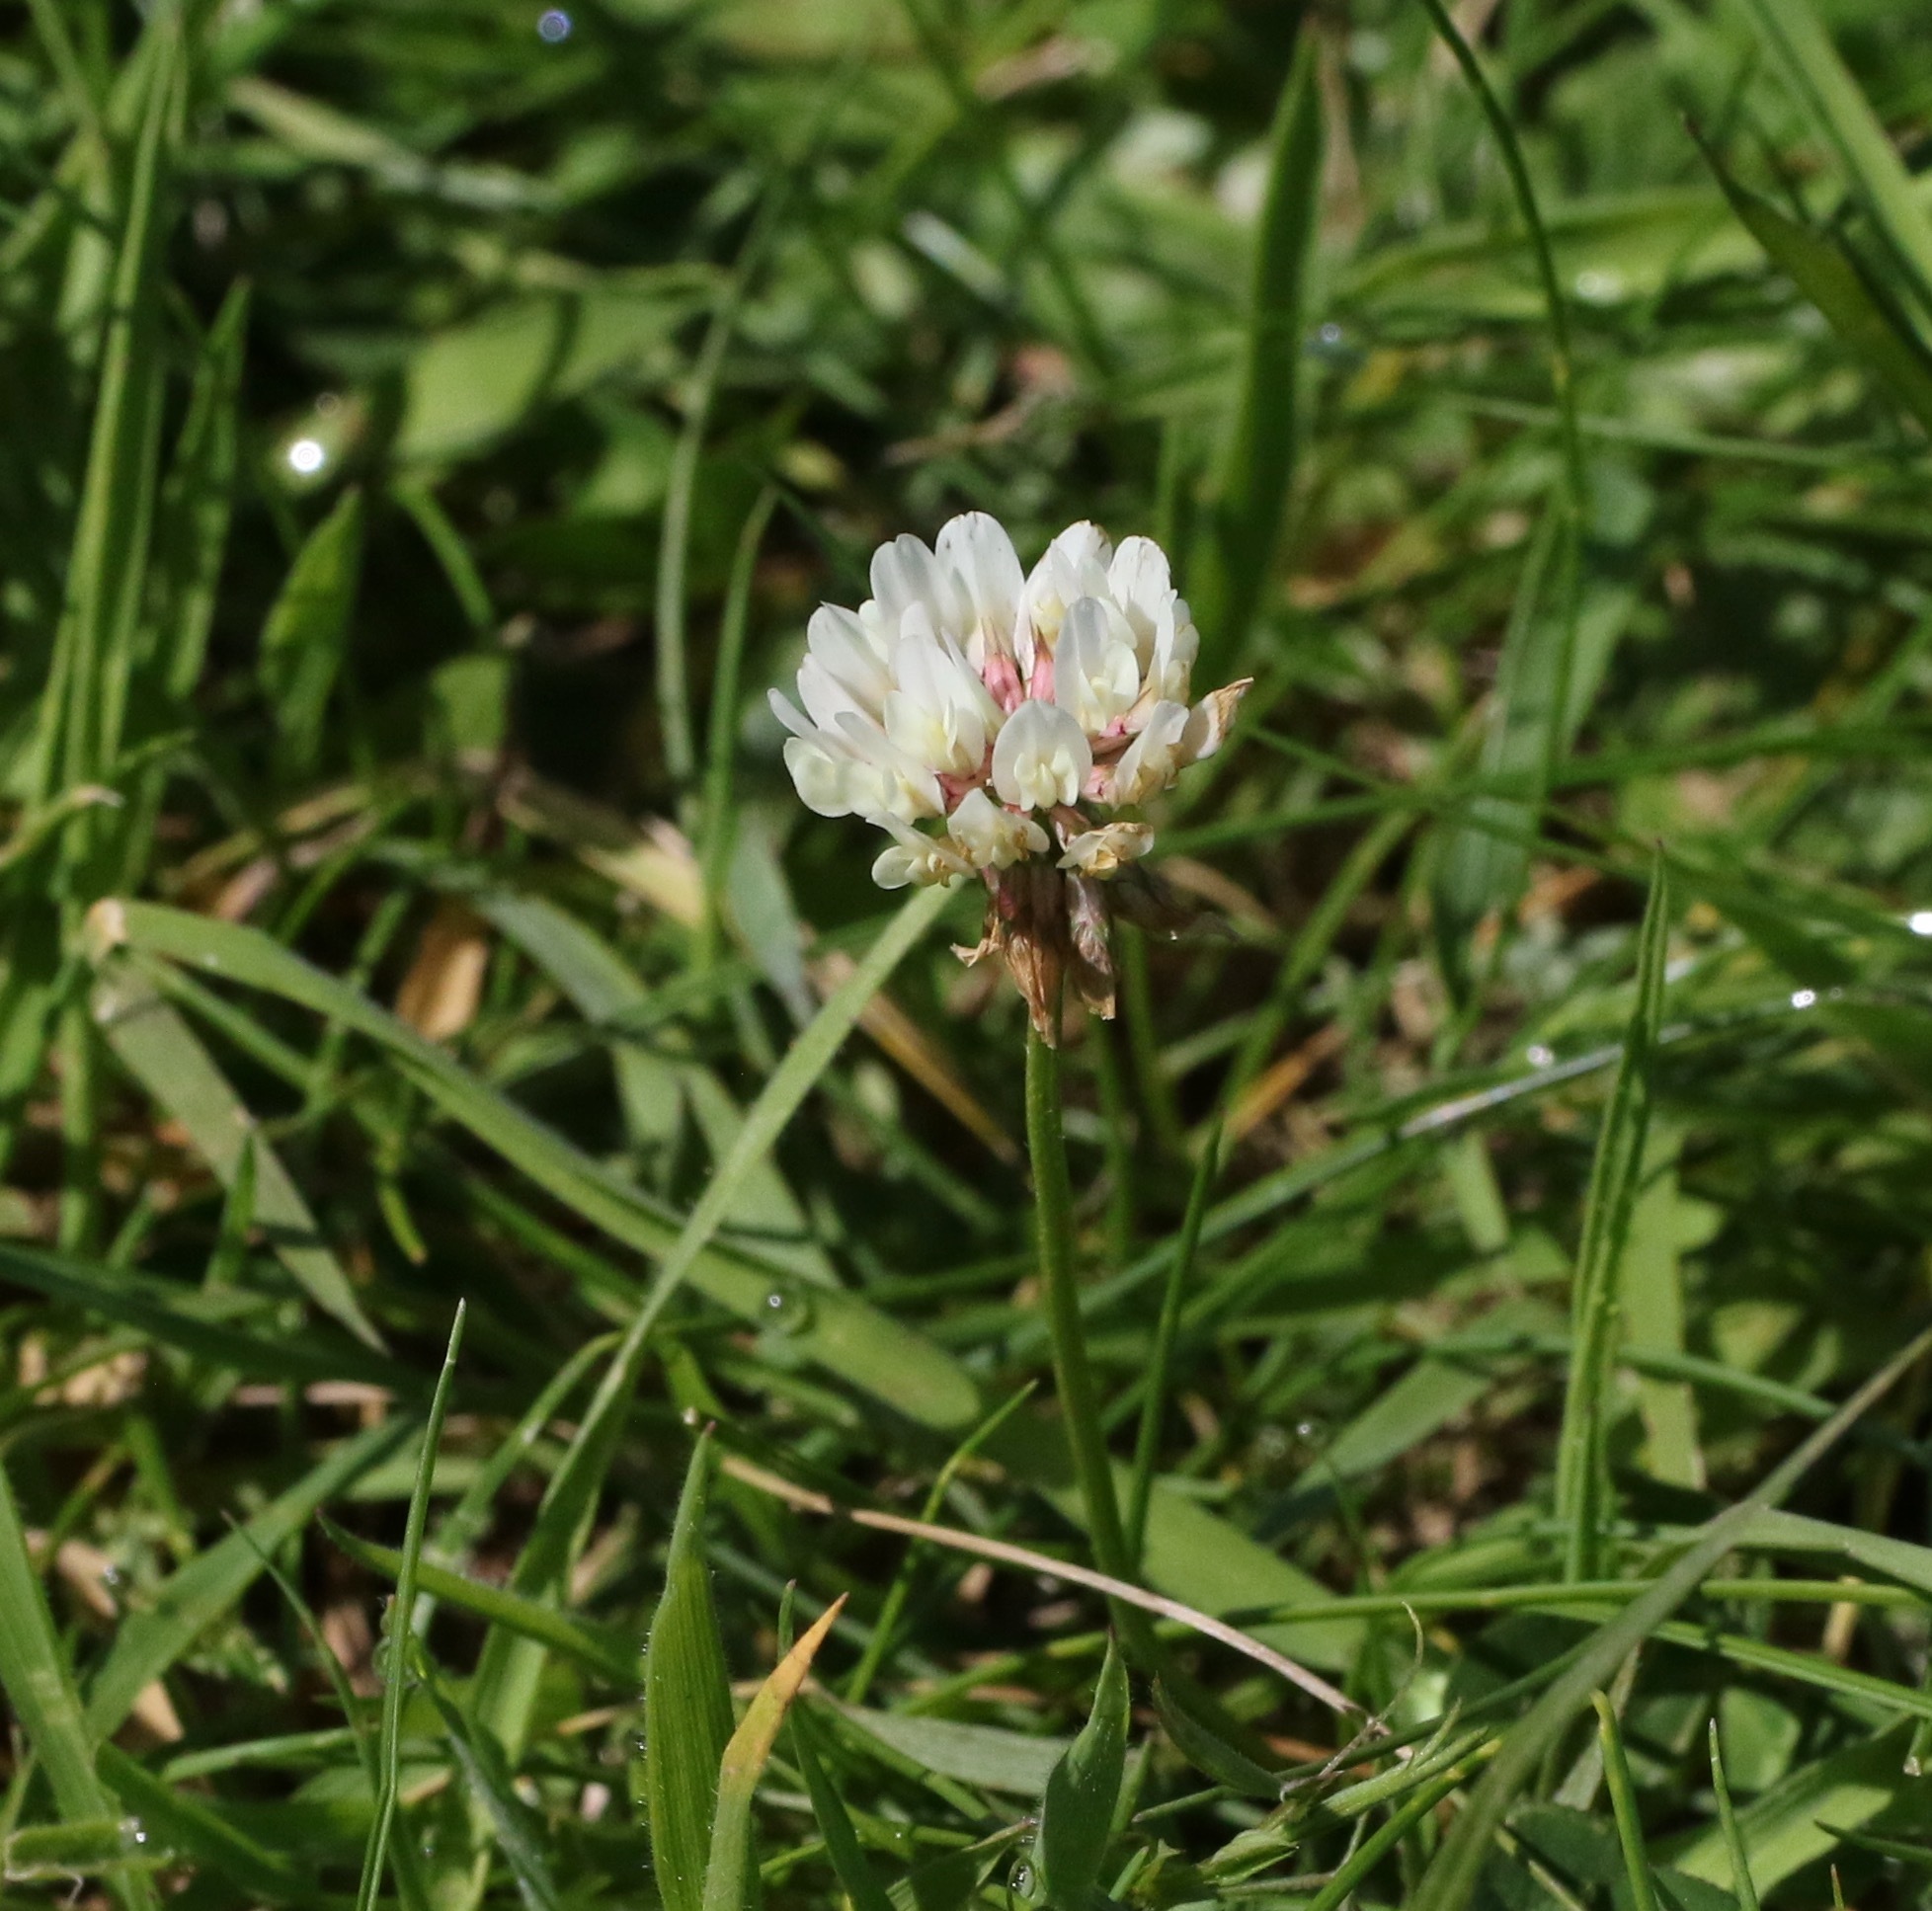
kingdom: Plantae
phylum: Tracheophyta
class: Magnoliopsida
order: Fabales
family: Fabaceae
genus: Trifolium
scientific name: Trifolium repens
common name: White clover
